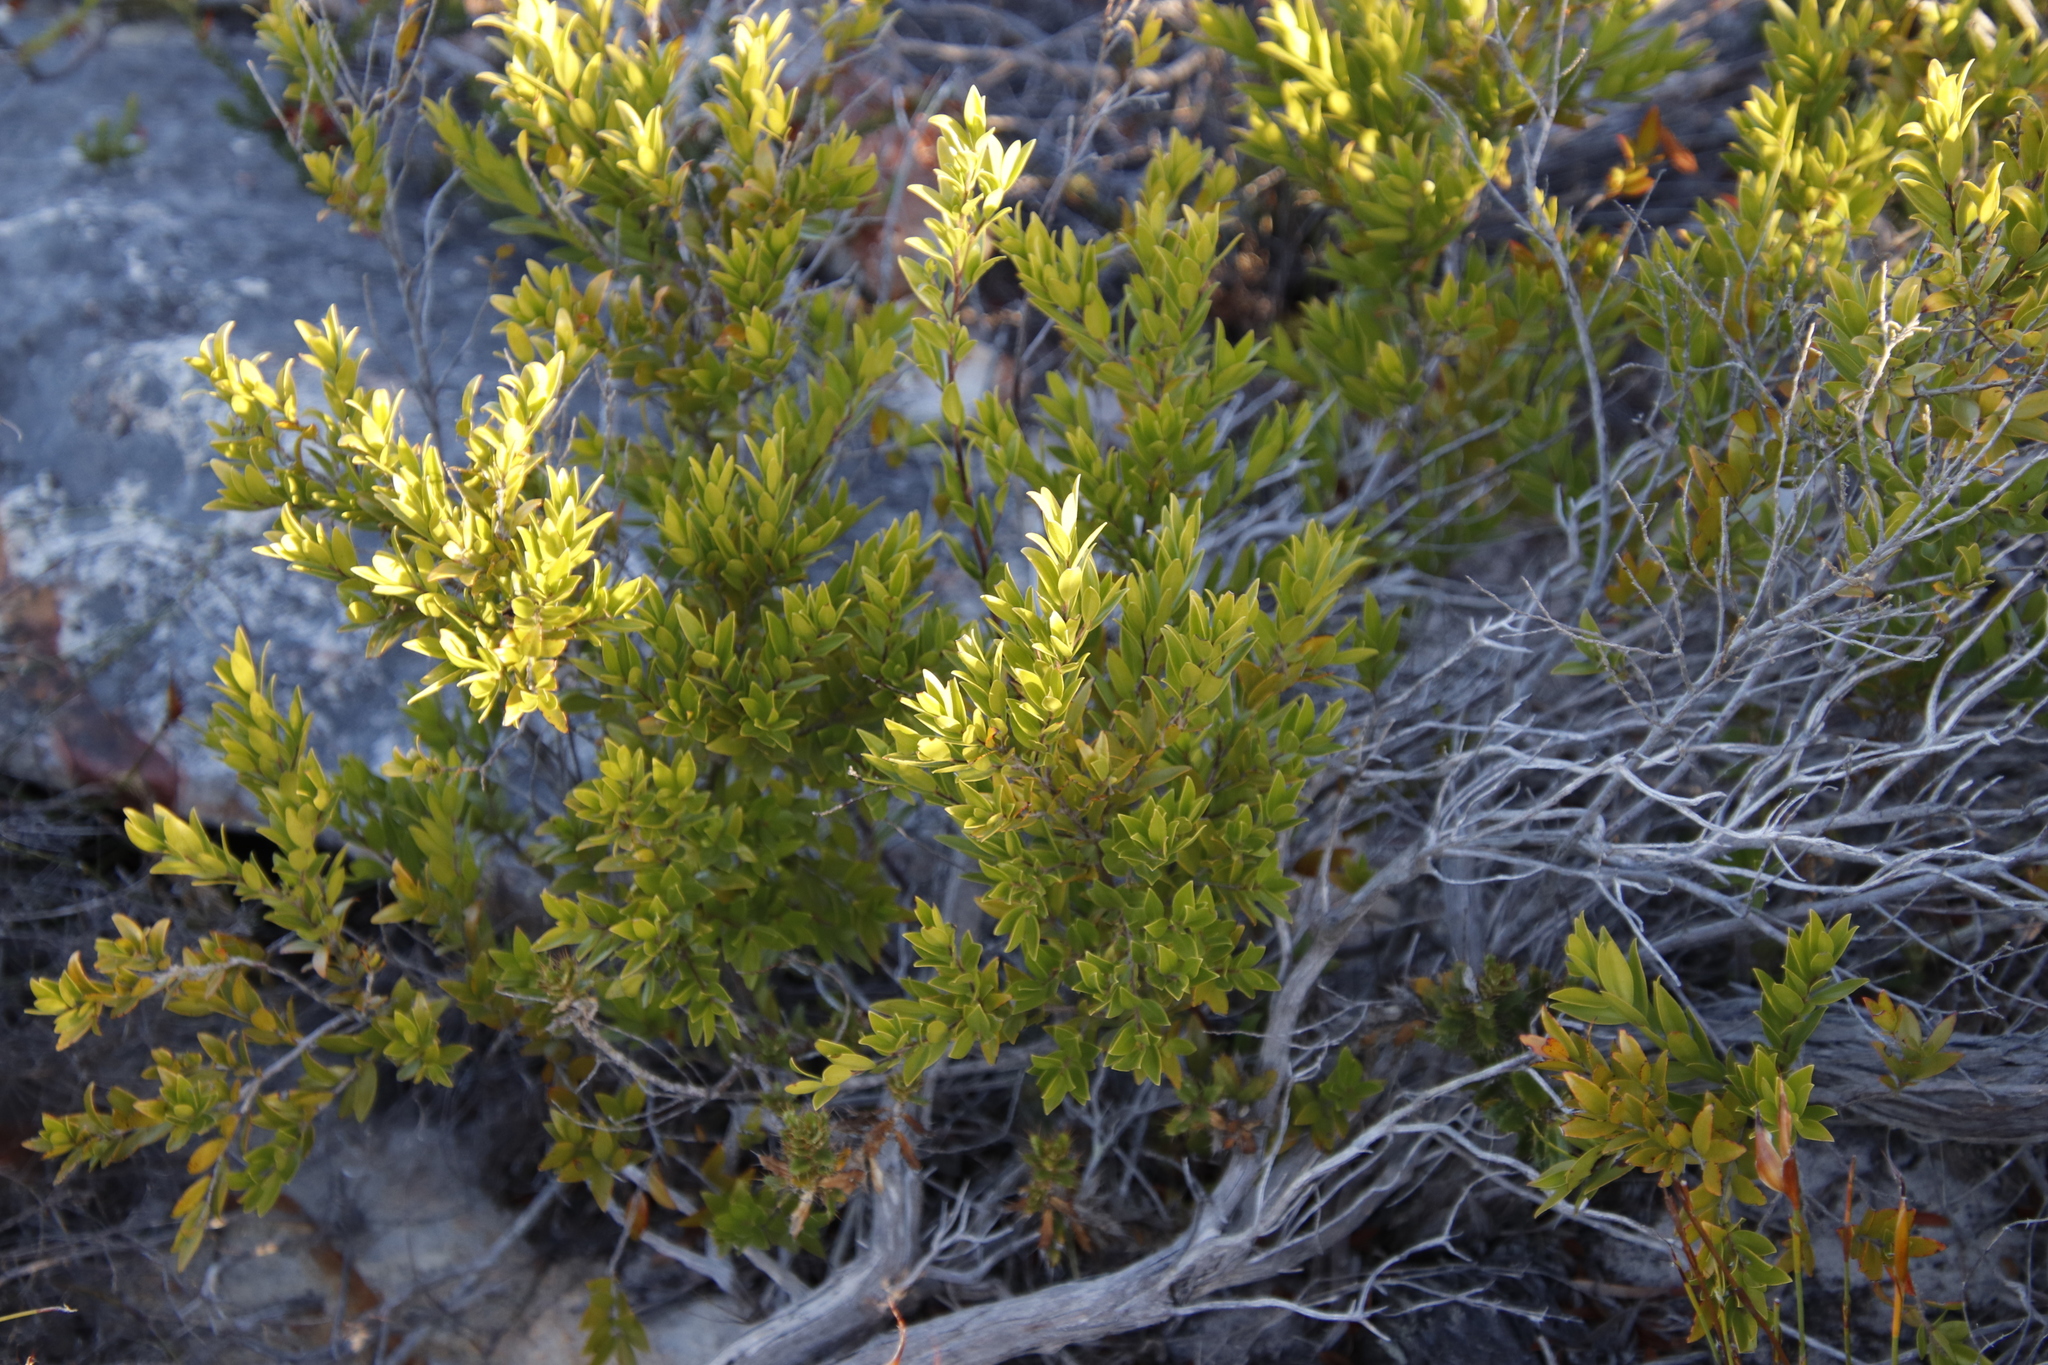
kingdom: Plantae
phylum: Tracheophyta
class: Magnoliopsida
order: Ericales
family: Ebenaceae
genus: Diospyros
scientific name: Diospyros glabra
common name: Fynbos star apple
